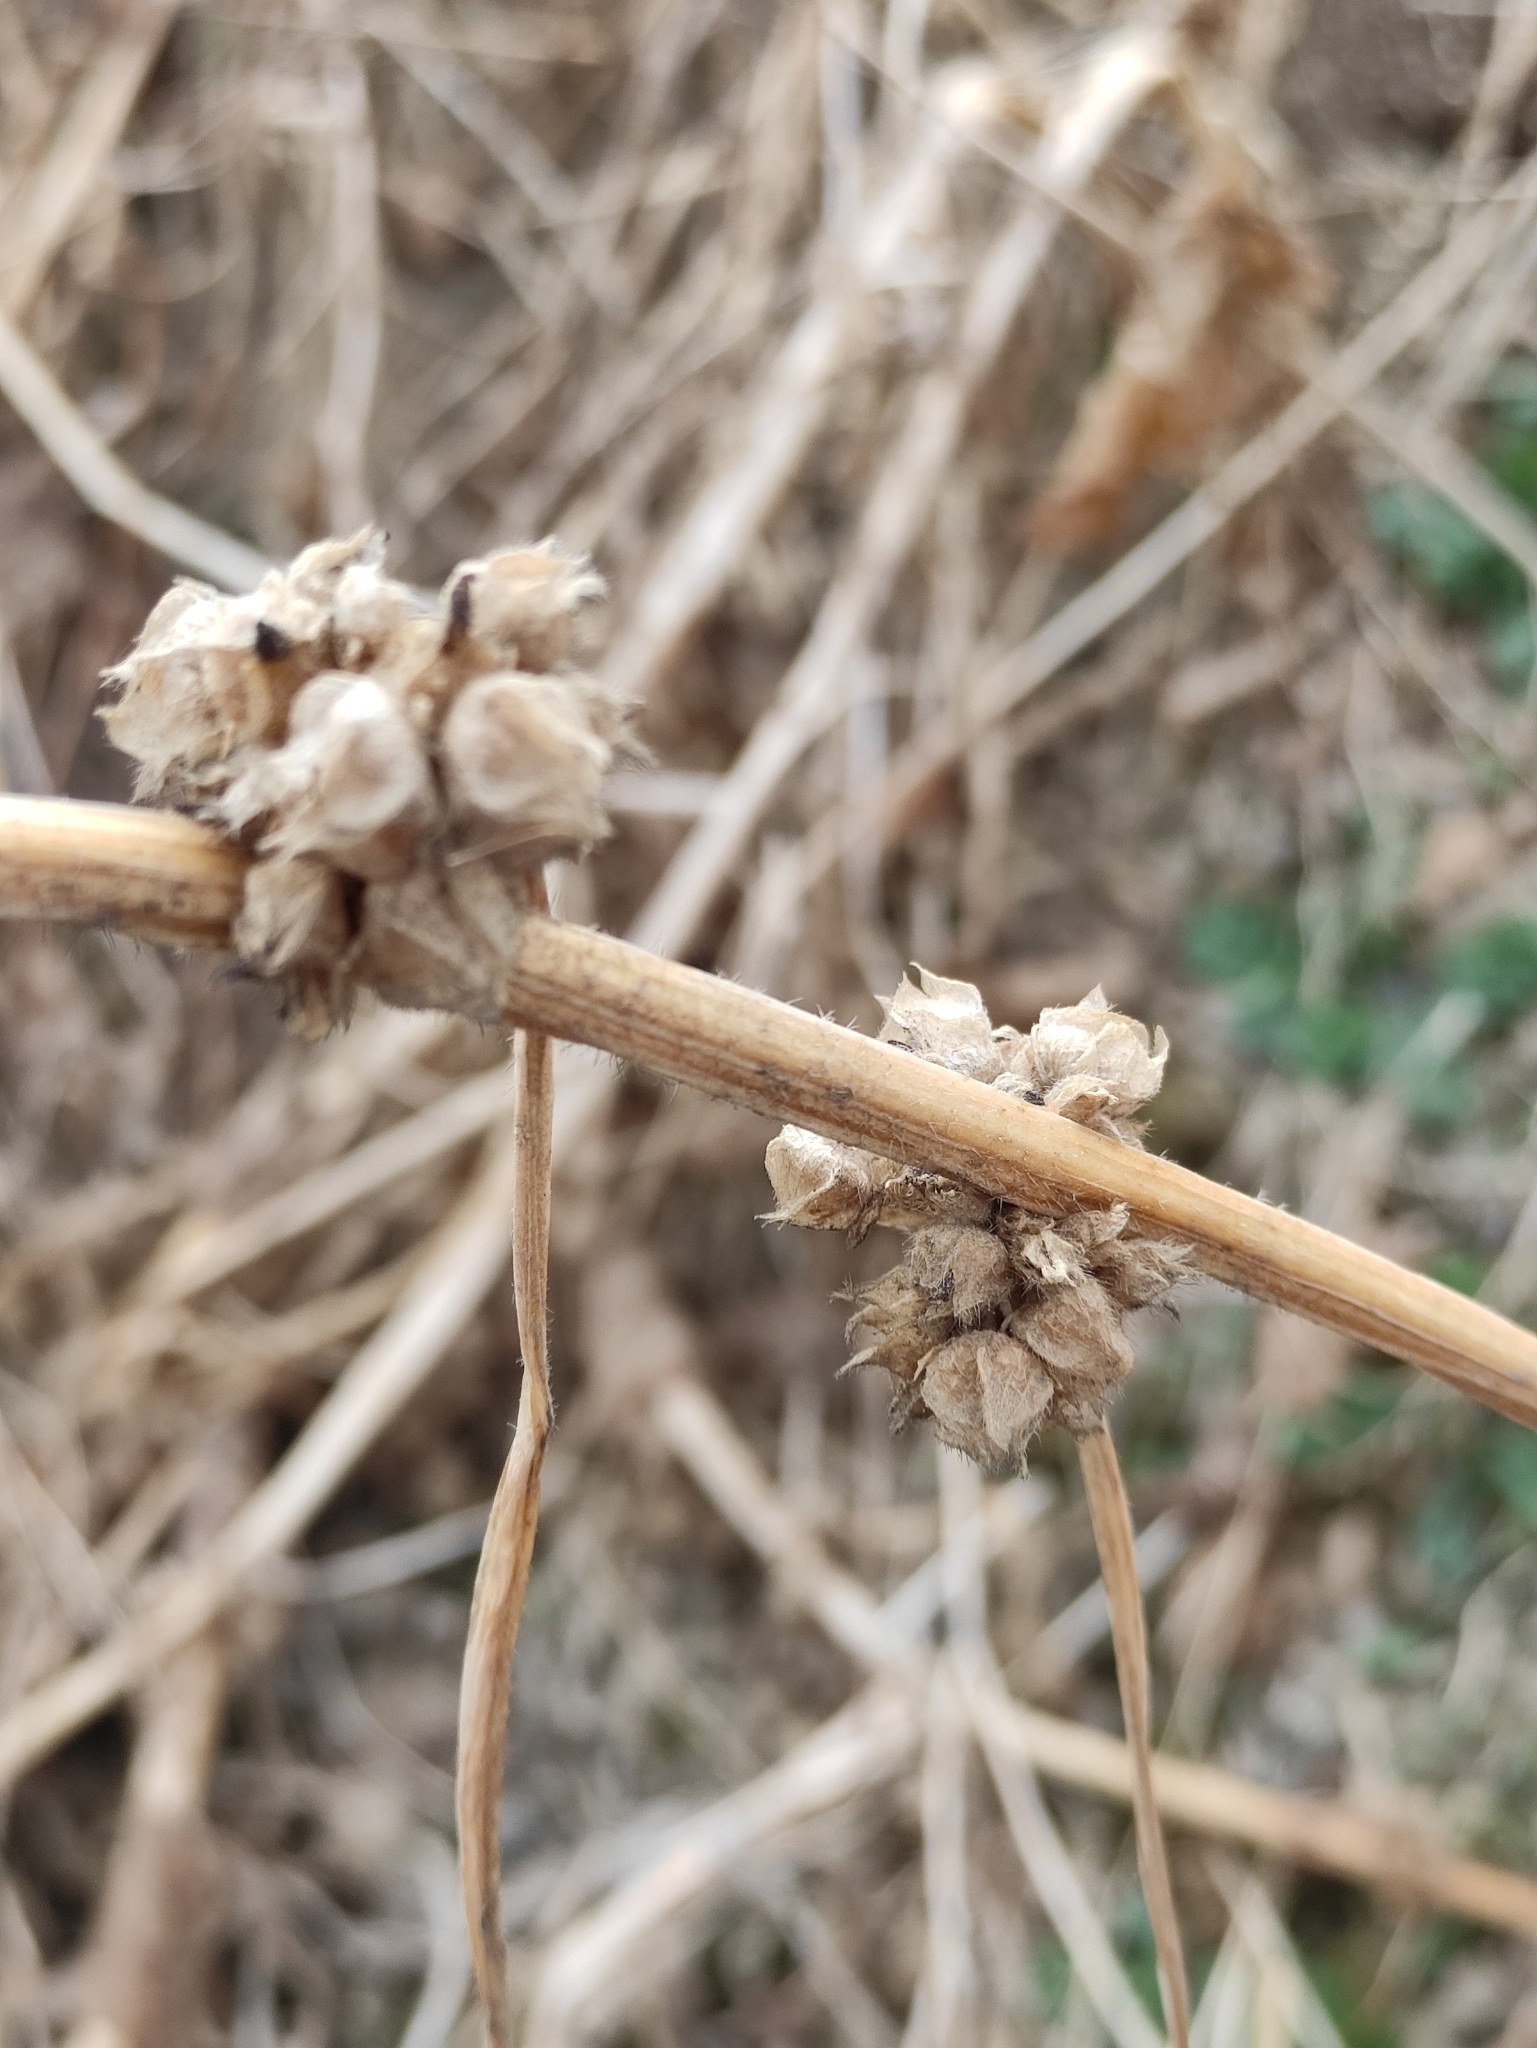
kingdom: Plantae
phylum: Tracheophyta
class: Magnoliopsida
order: Malvales
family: Malvaceae
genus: Malva
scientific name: Malva verticillata
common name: Chinese mallow
